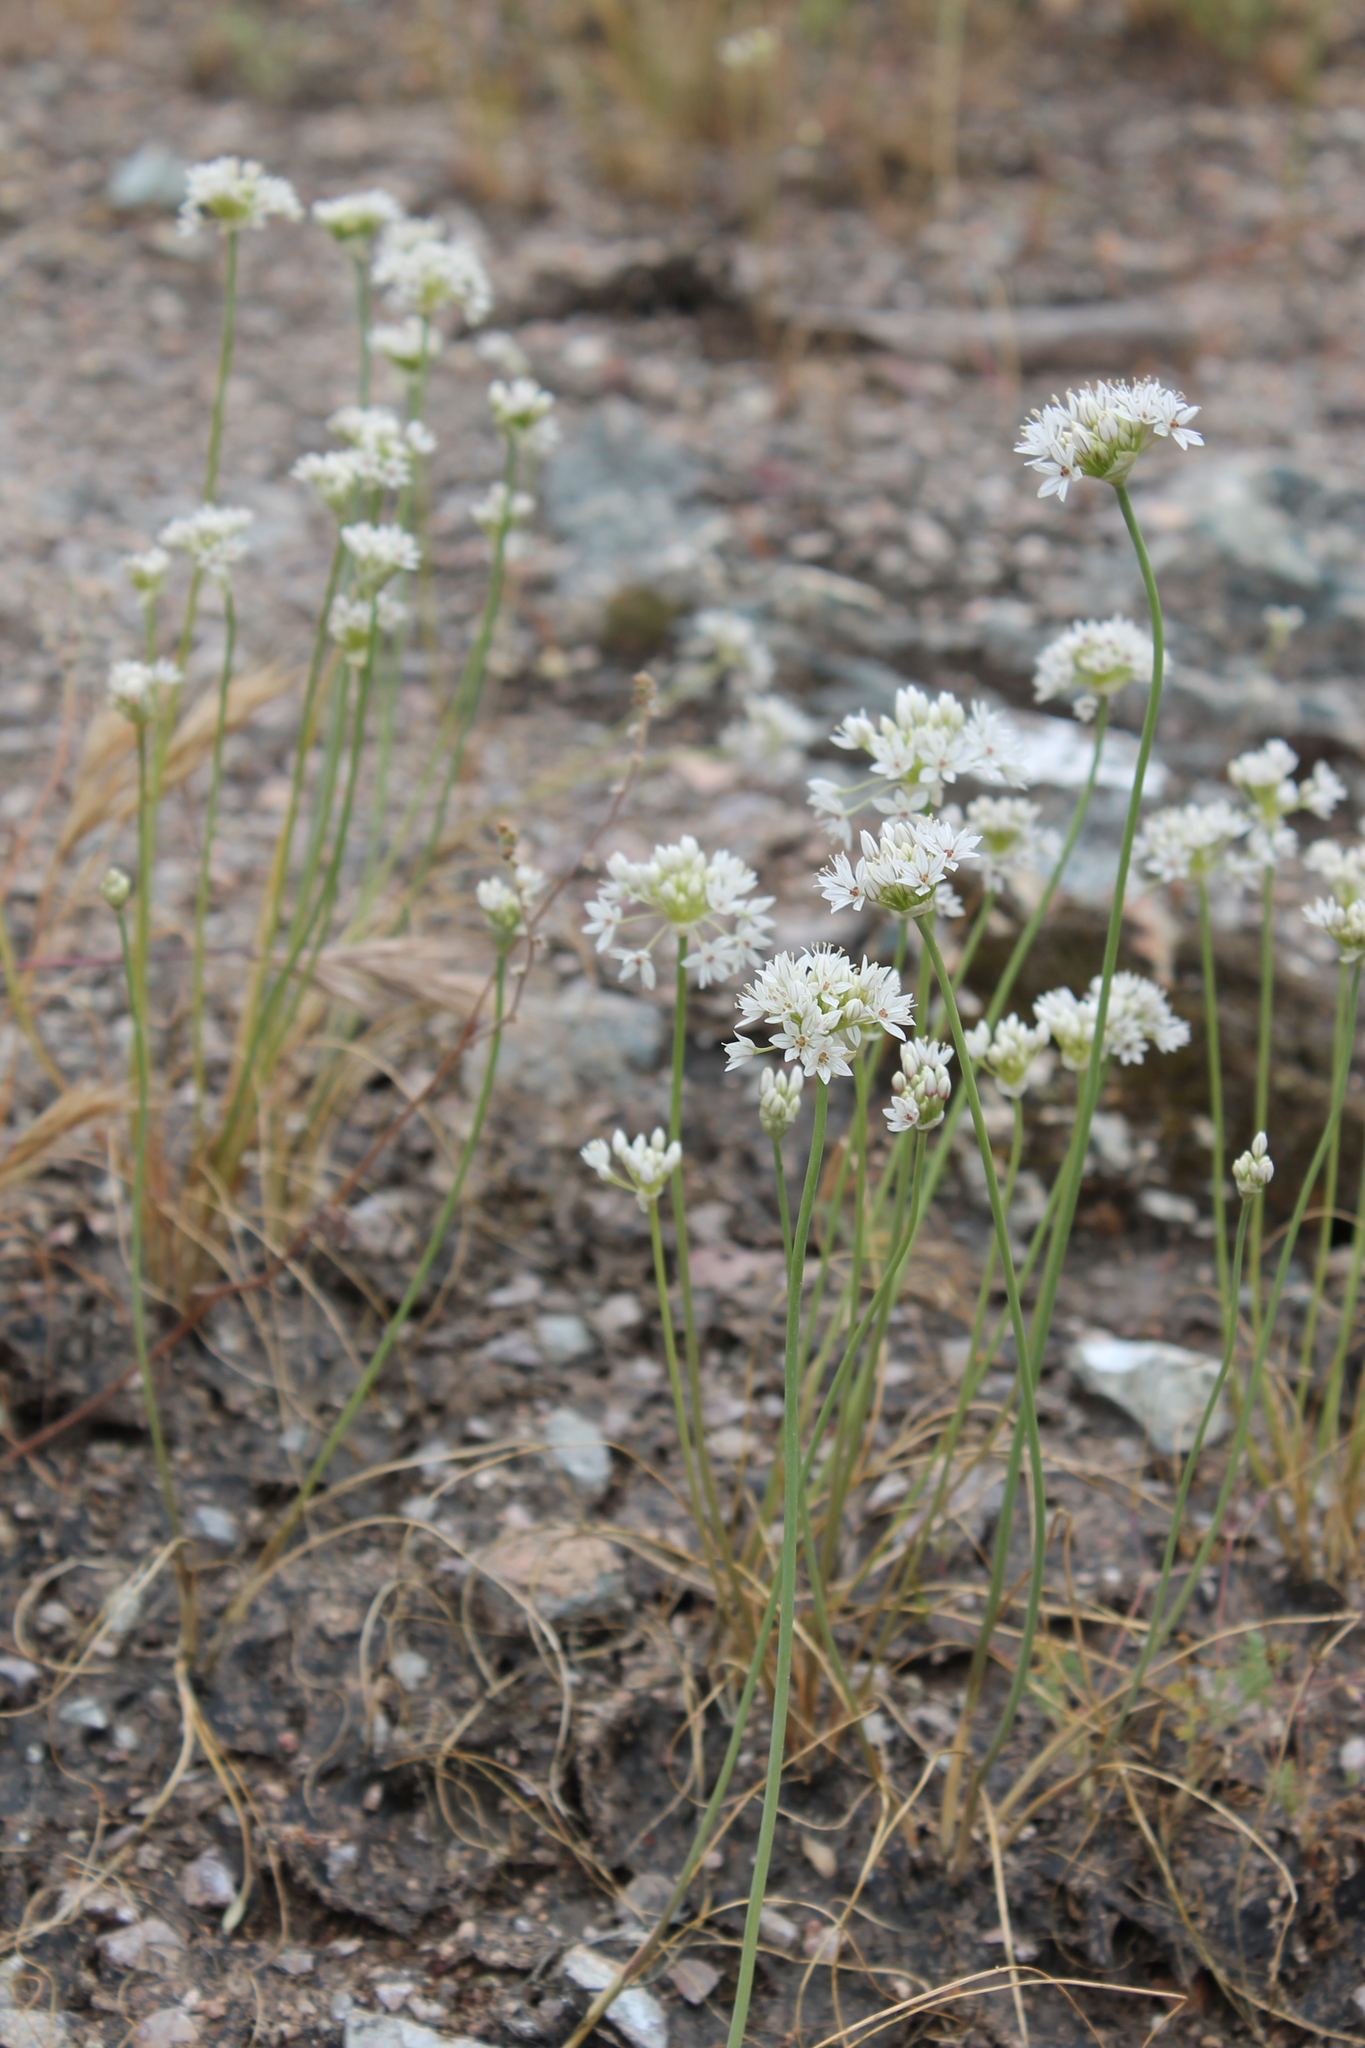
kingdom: Plantae
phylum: Tracheophyta
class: Liliopsida
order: Asparagales
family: Amaryllidaceae
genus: Allium
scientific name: Allium lacunosum
